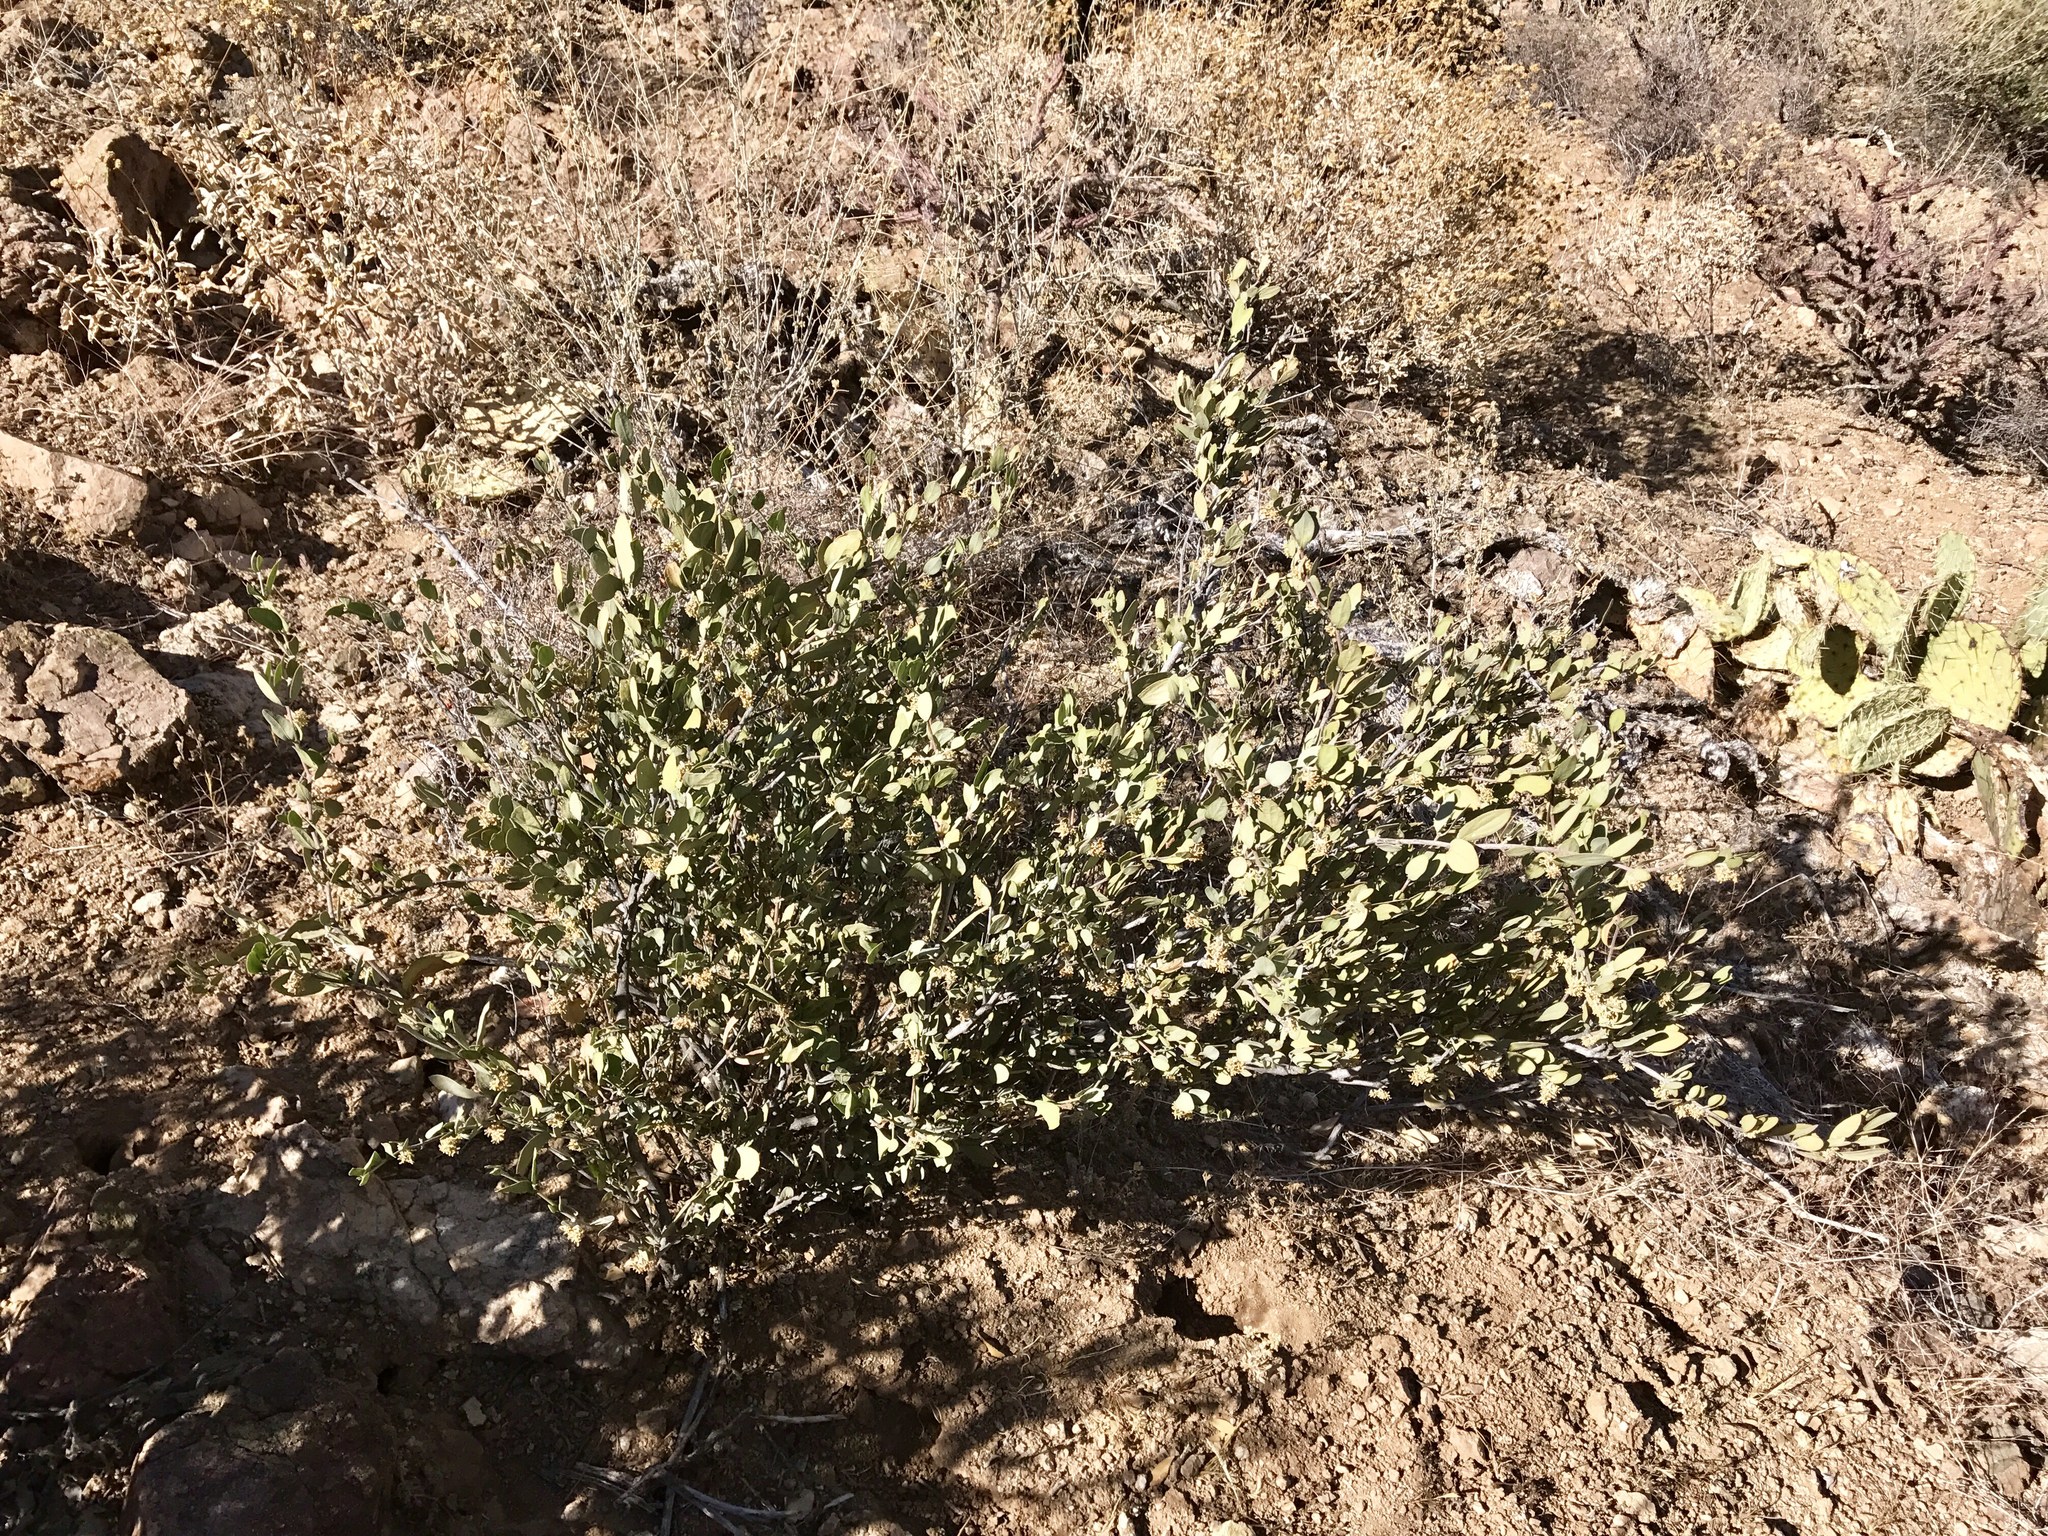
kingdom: Plantae
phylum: Tracheophyta
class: Magnoliopsida
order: Caryophyllales
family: Simmondsiaceae
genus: Simmondsia
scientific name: Simmondsia chinensis
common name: Jojoba
